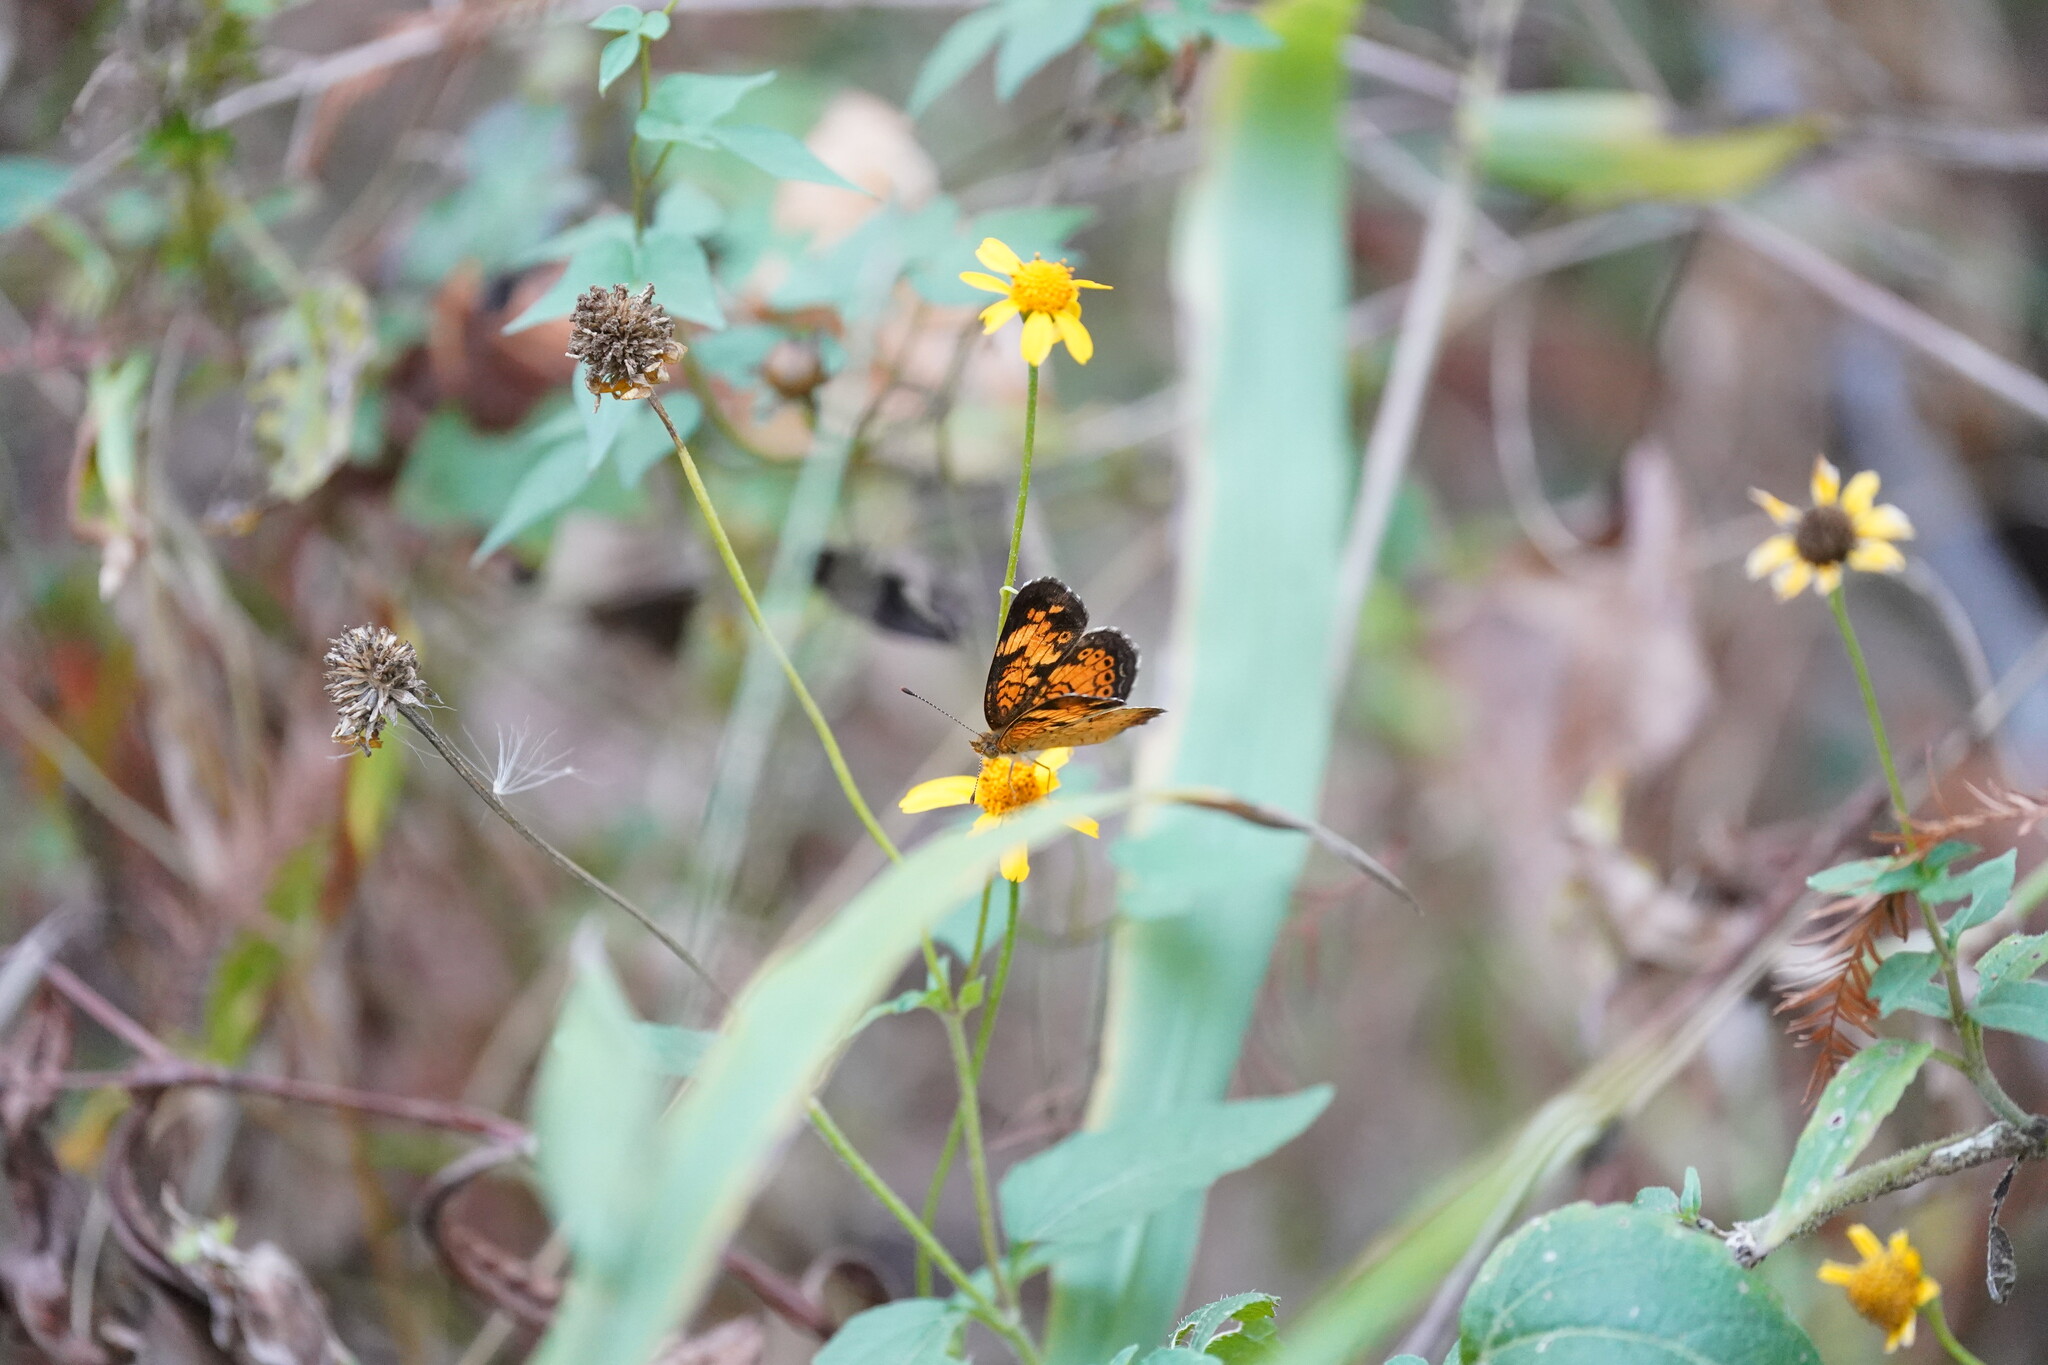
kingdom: Animalia
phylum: Arthropoda
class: Insecta
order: Lepidoptera
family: Nymphalidae
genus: Phyciodes
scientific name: Phyciodes tharos
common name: Pearl crescent
